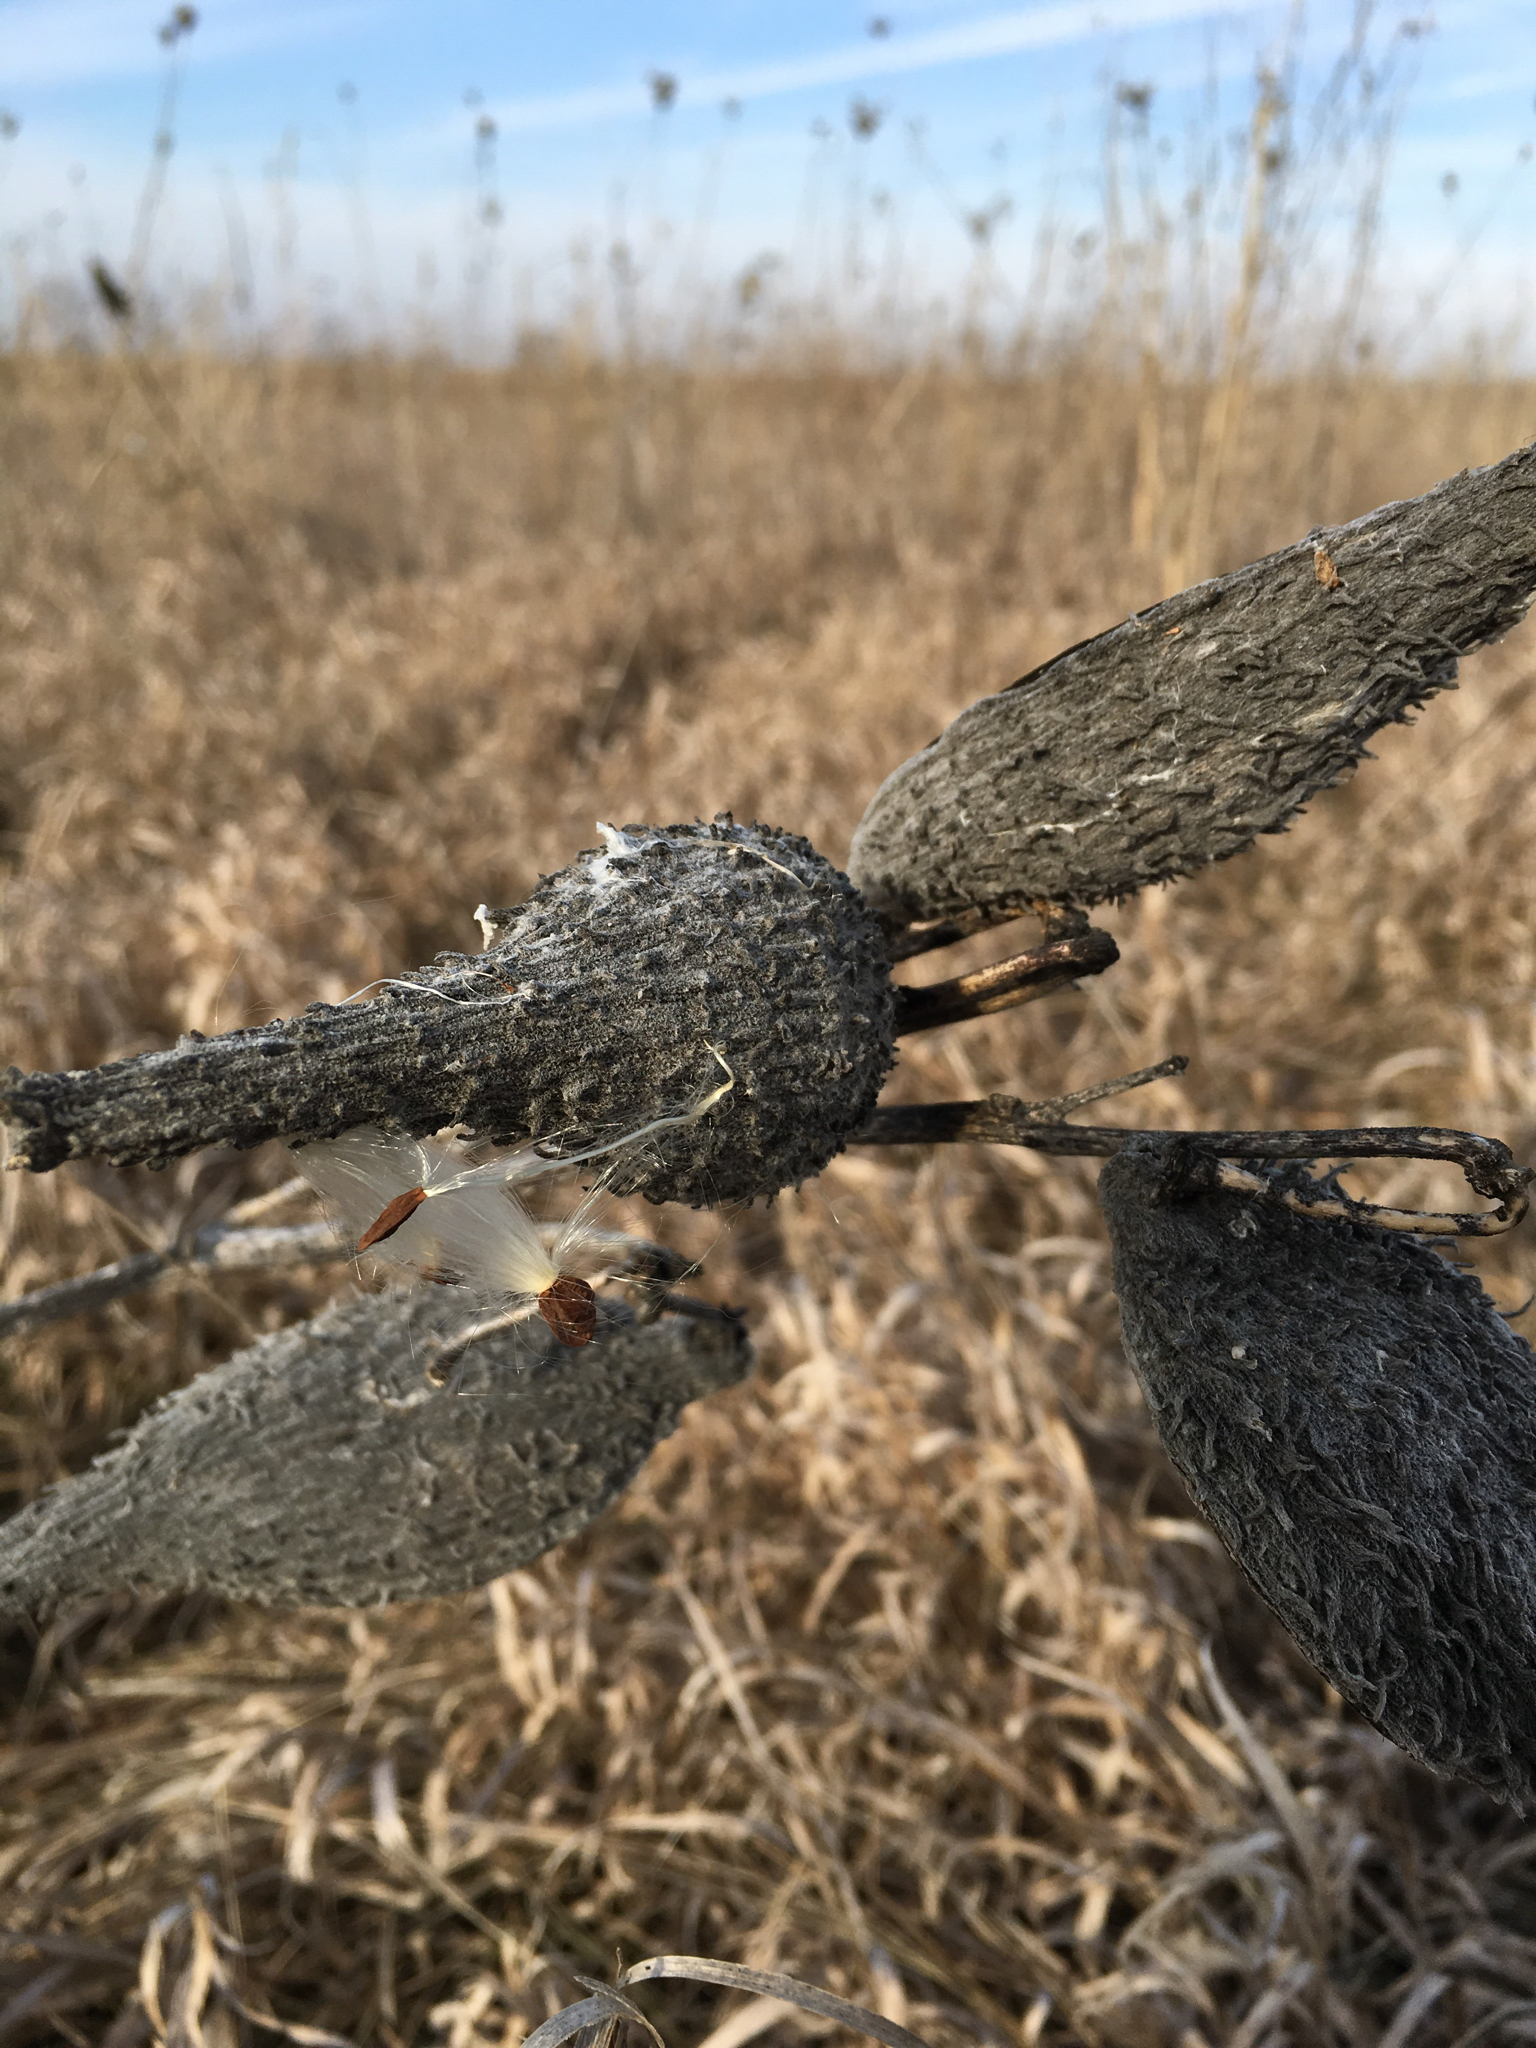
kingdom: Plantae
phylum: Tracheophyta
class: Magnoliopsida
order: Gentianales
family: Apocynaceae
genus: Asclepias
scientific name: Asclepias syriaca
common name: Common milkweed
